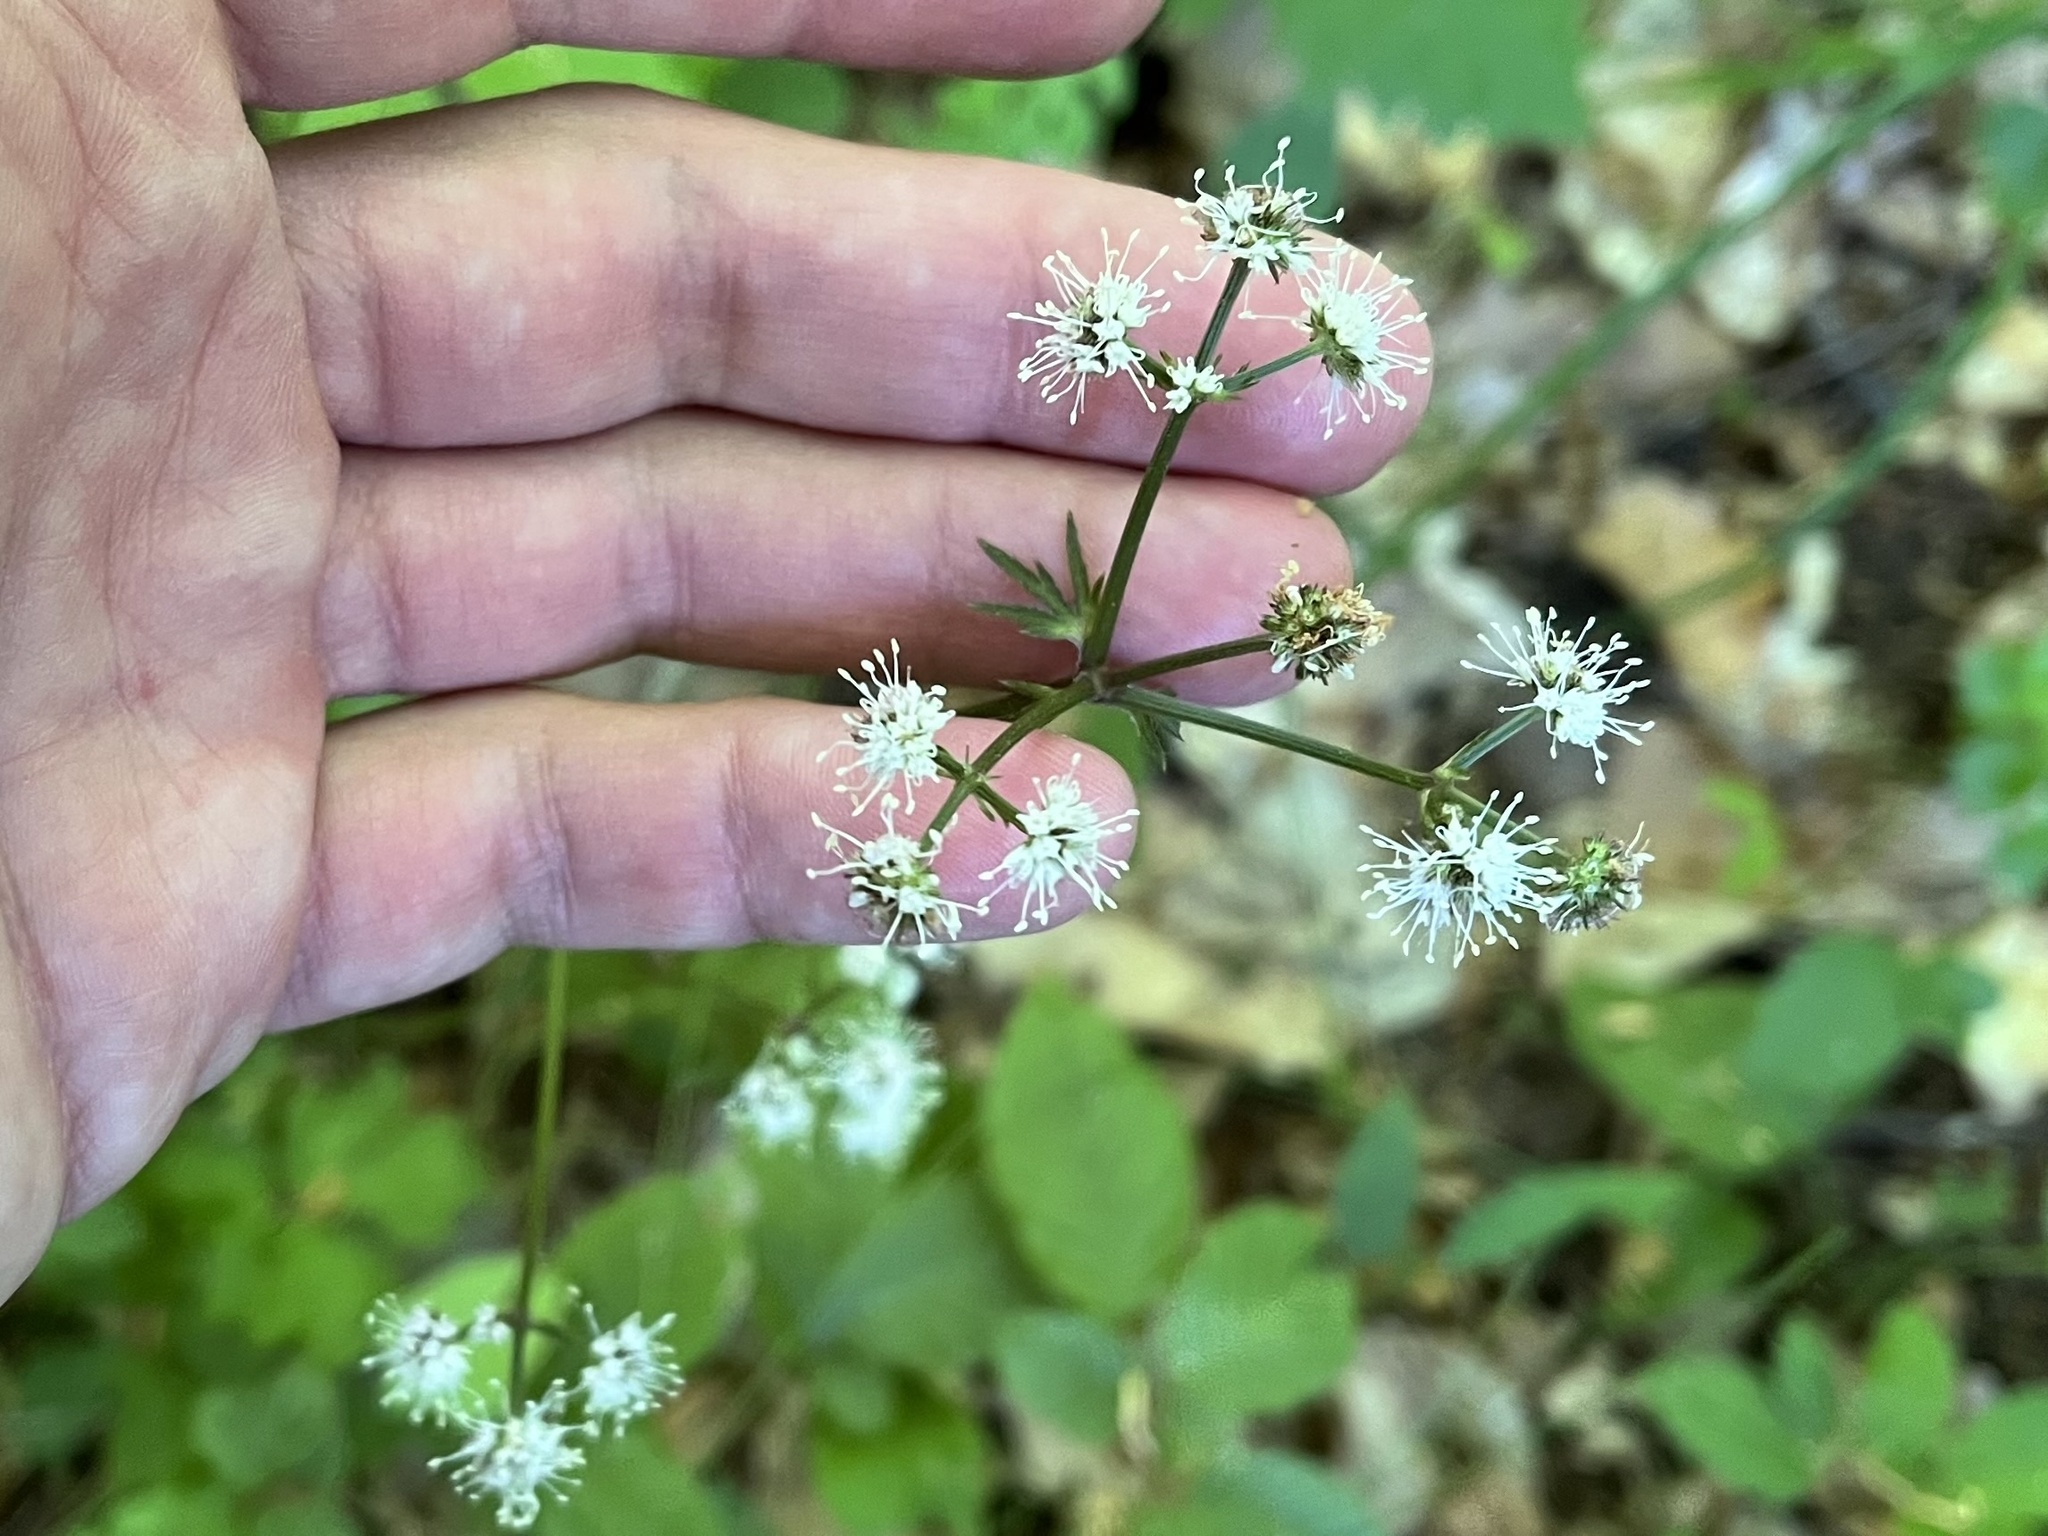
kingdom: Plantae
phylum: Tracheophyta
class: Magnoliopsida
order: Apiales
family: Apiaceae
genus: Sanicula
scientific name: Sanicula europaea
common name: Sanicle
